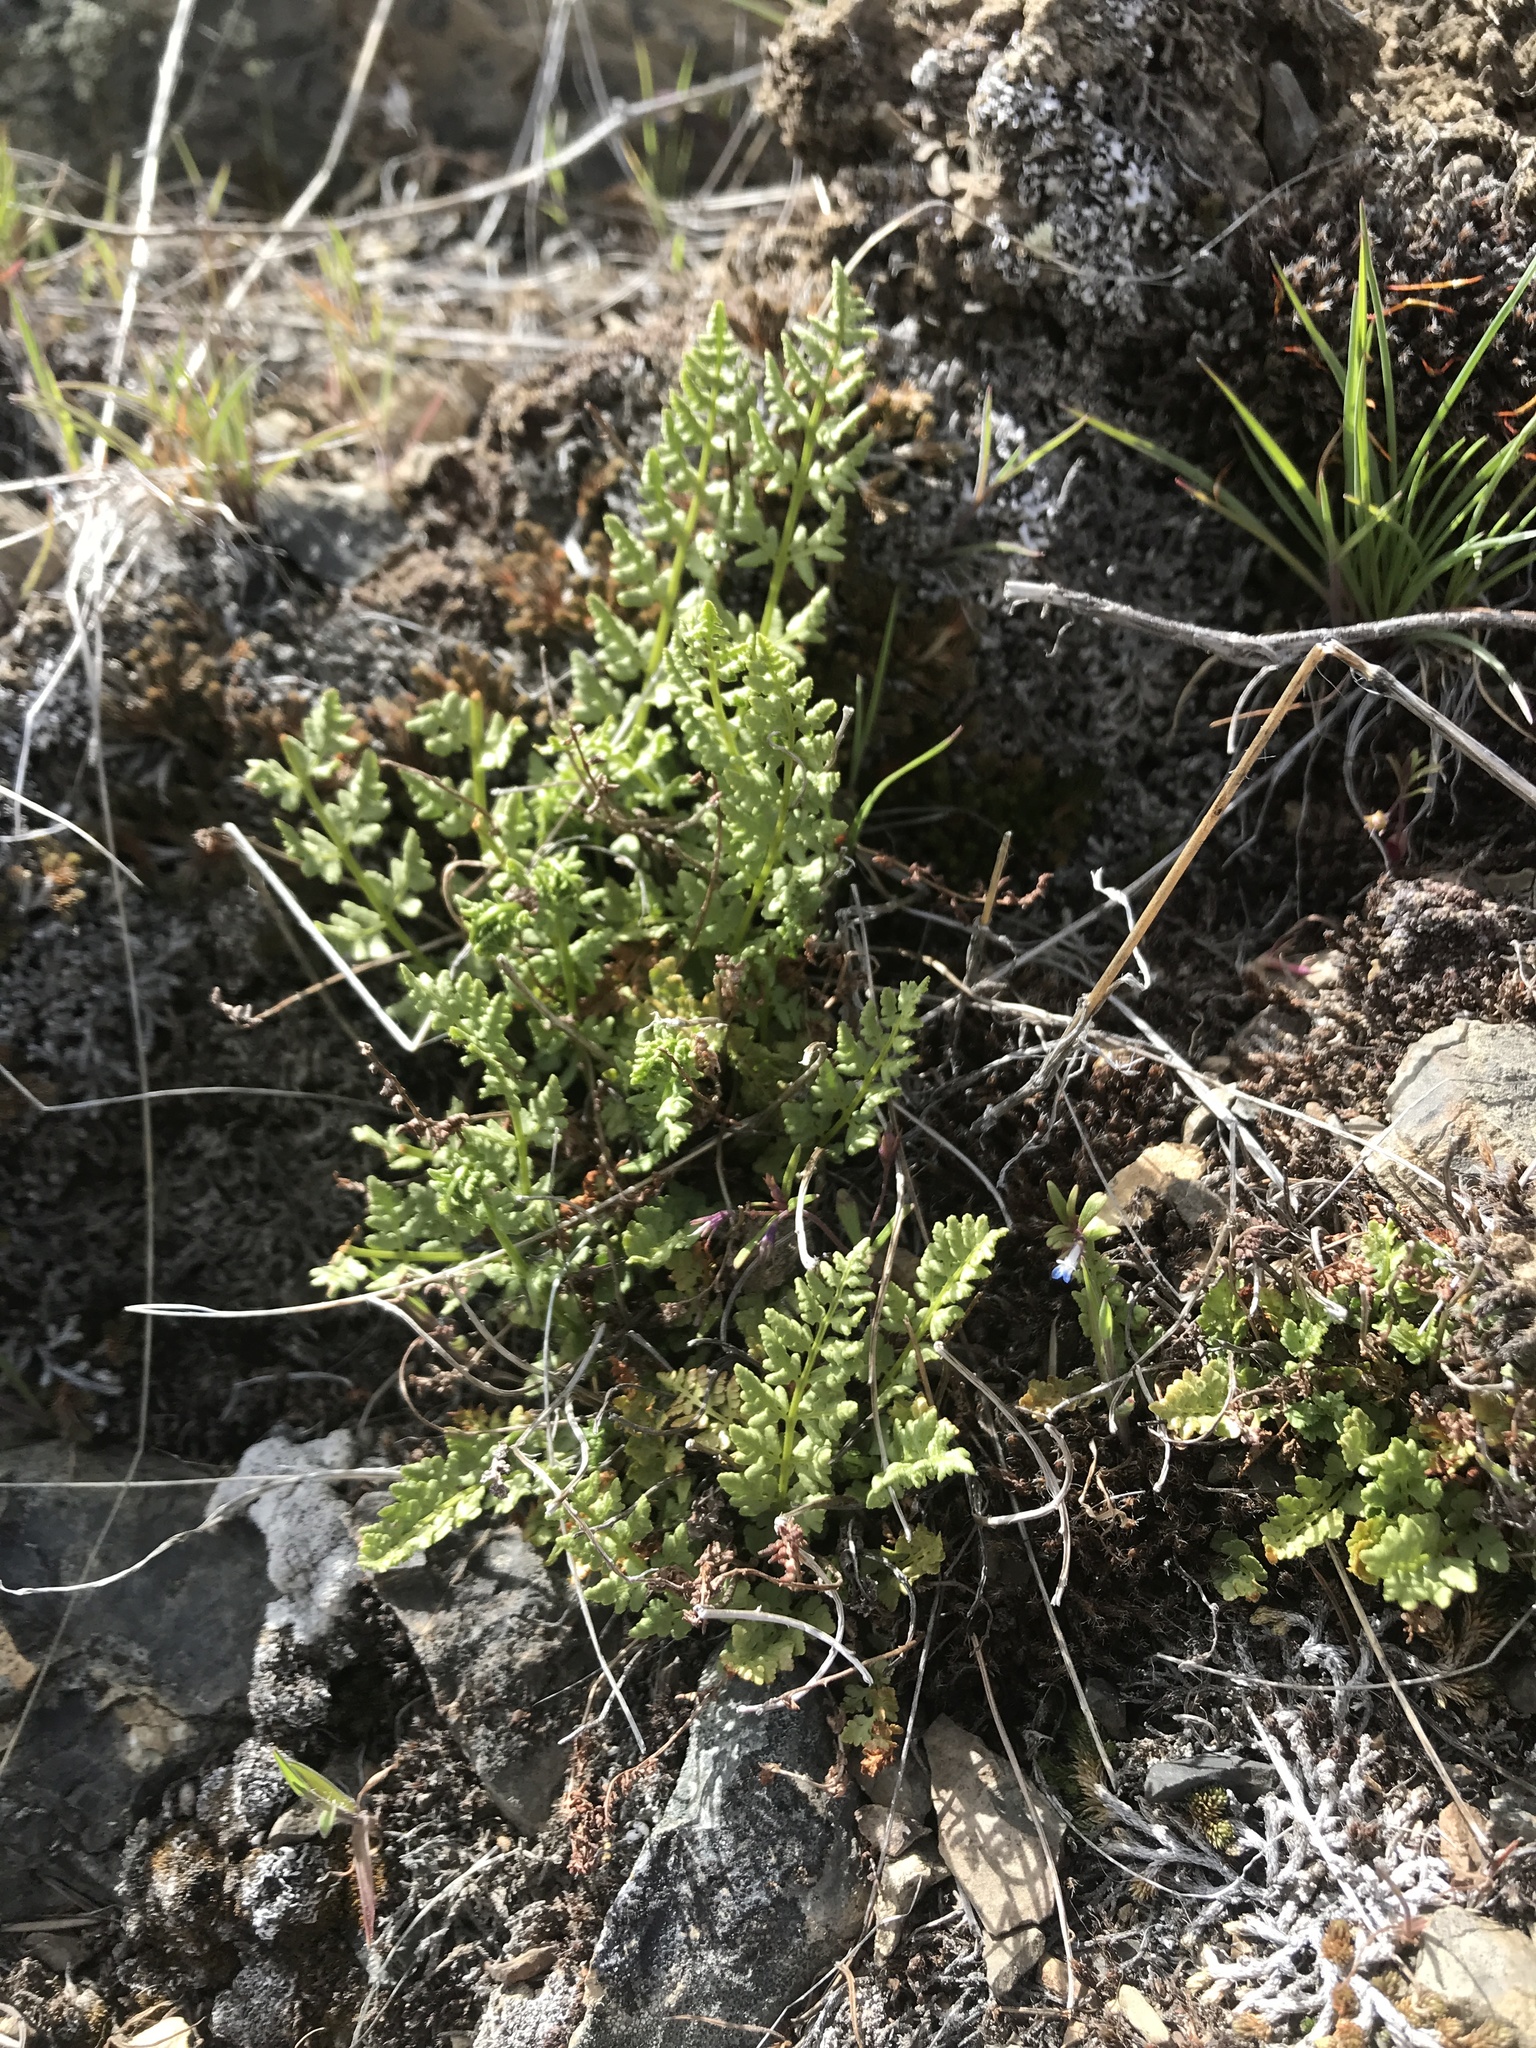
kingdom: Plantae
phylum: Tracheophyta
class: Polypodiopsida
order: Polypodiales
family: Woodsiaceae
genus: Physematium
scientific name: Physematium oreganum
